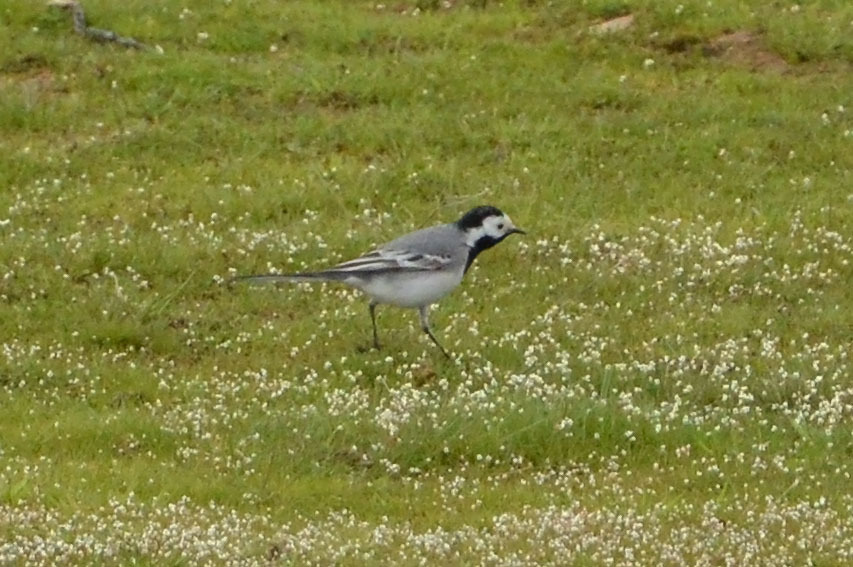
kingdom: Animalia
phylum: Chordata
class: Aves
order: Passeriformes
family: Motacillidae
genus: Motacilla
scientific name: Motacilla alba
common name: White wagtail
